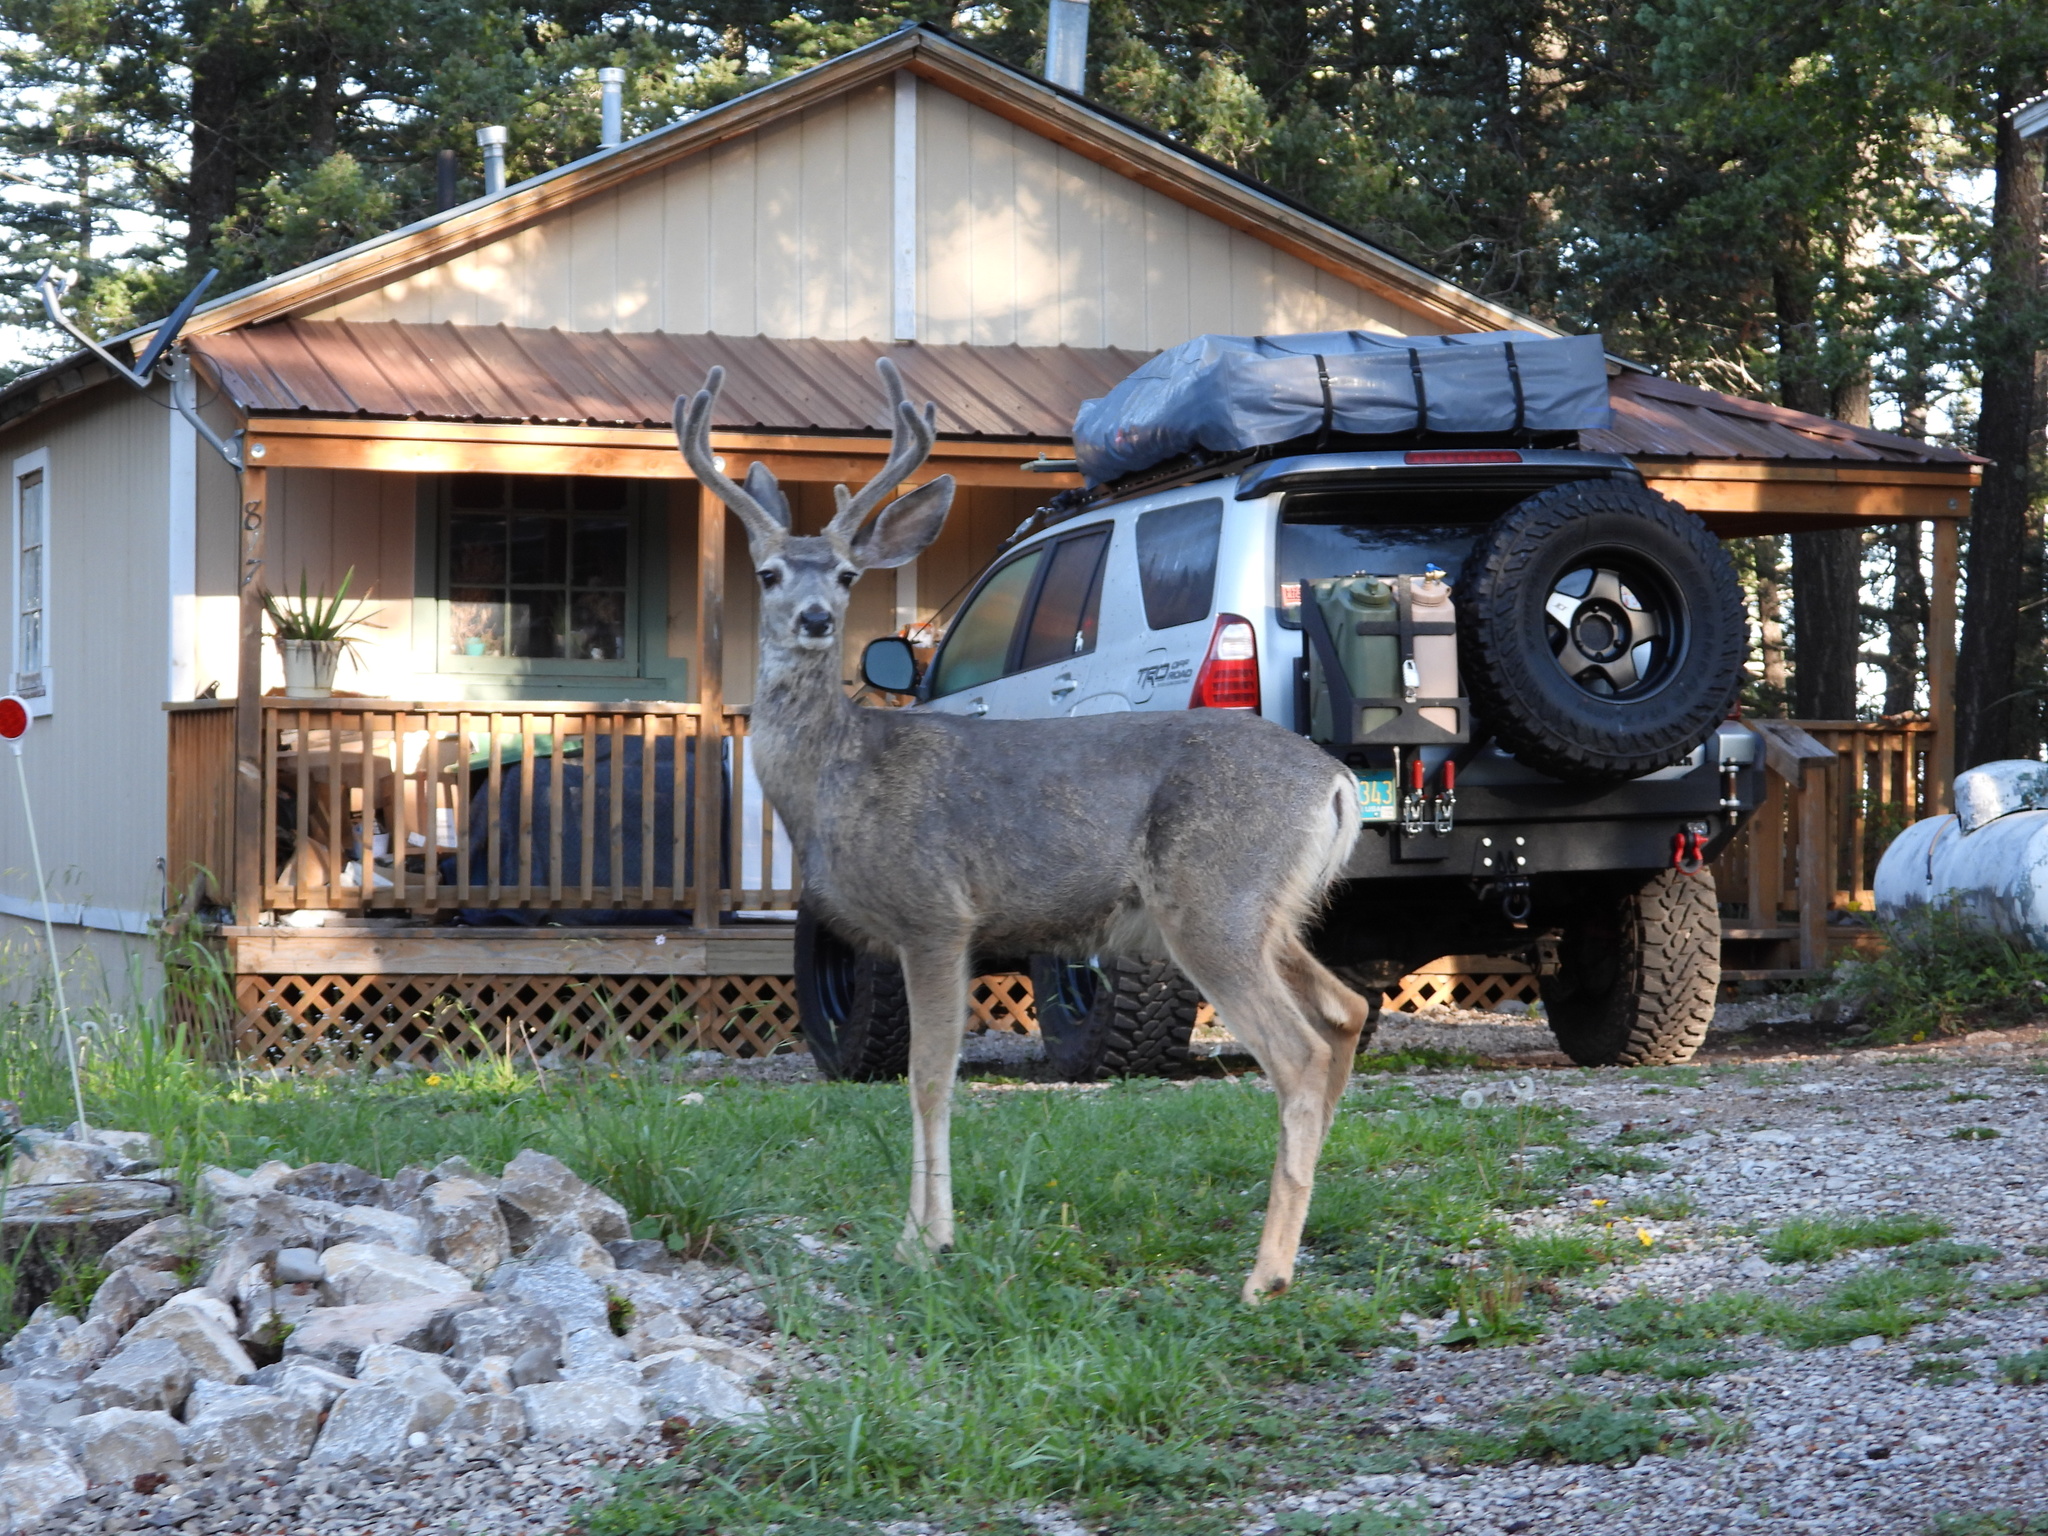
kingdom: Animalia
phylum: Chordata
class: Mammalia
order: Artiodactyla
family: Cervidae
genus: Odocoileus
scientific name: Odocoileus hemionus
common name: Mule deer
